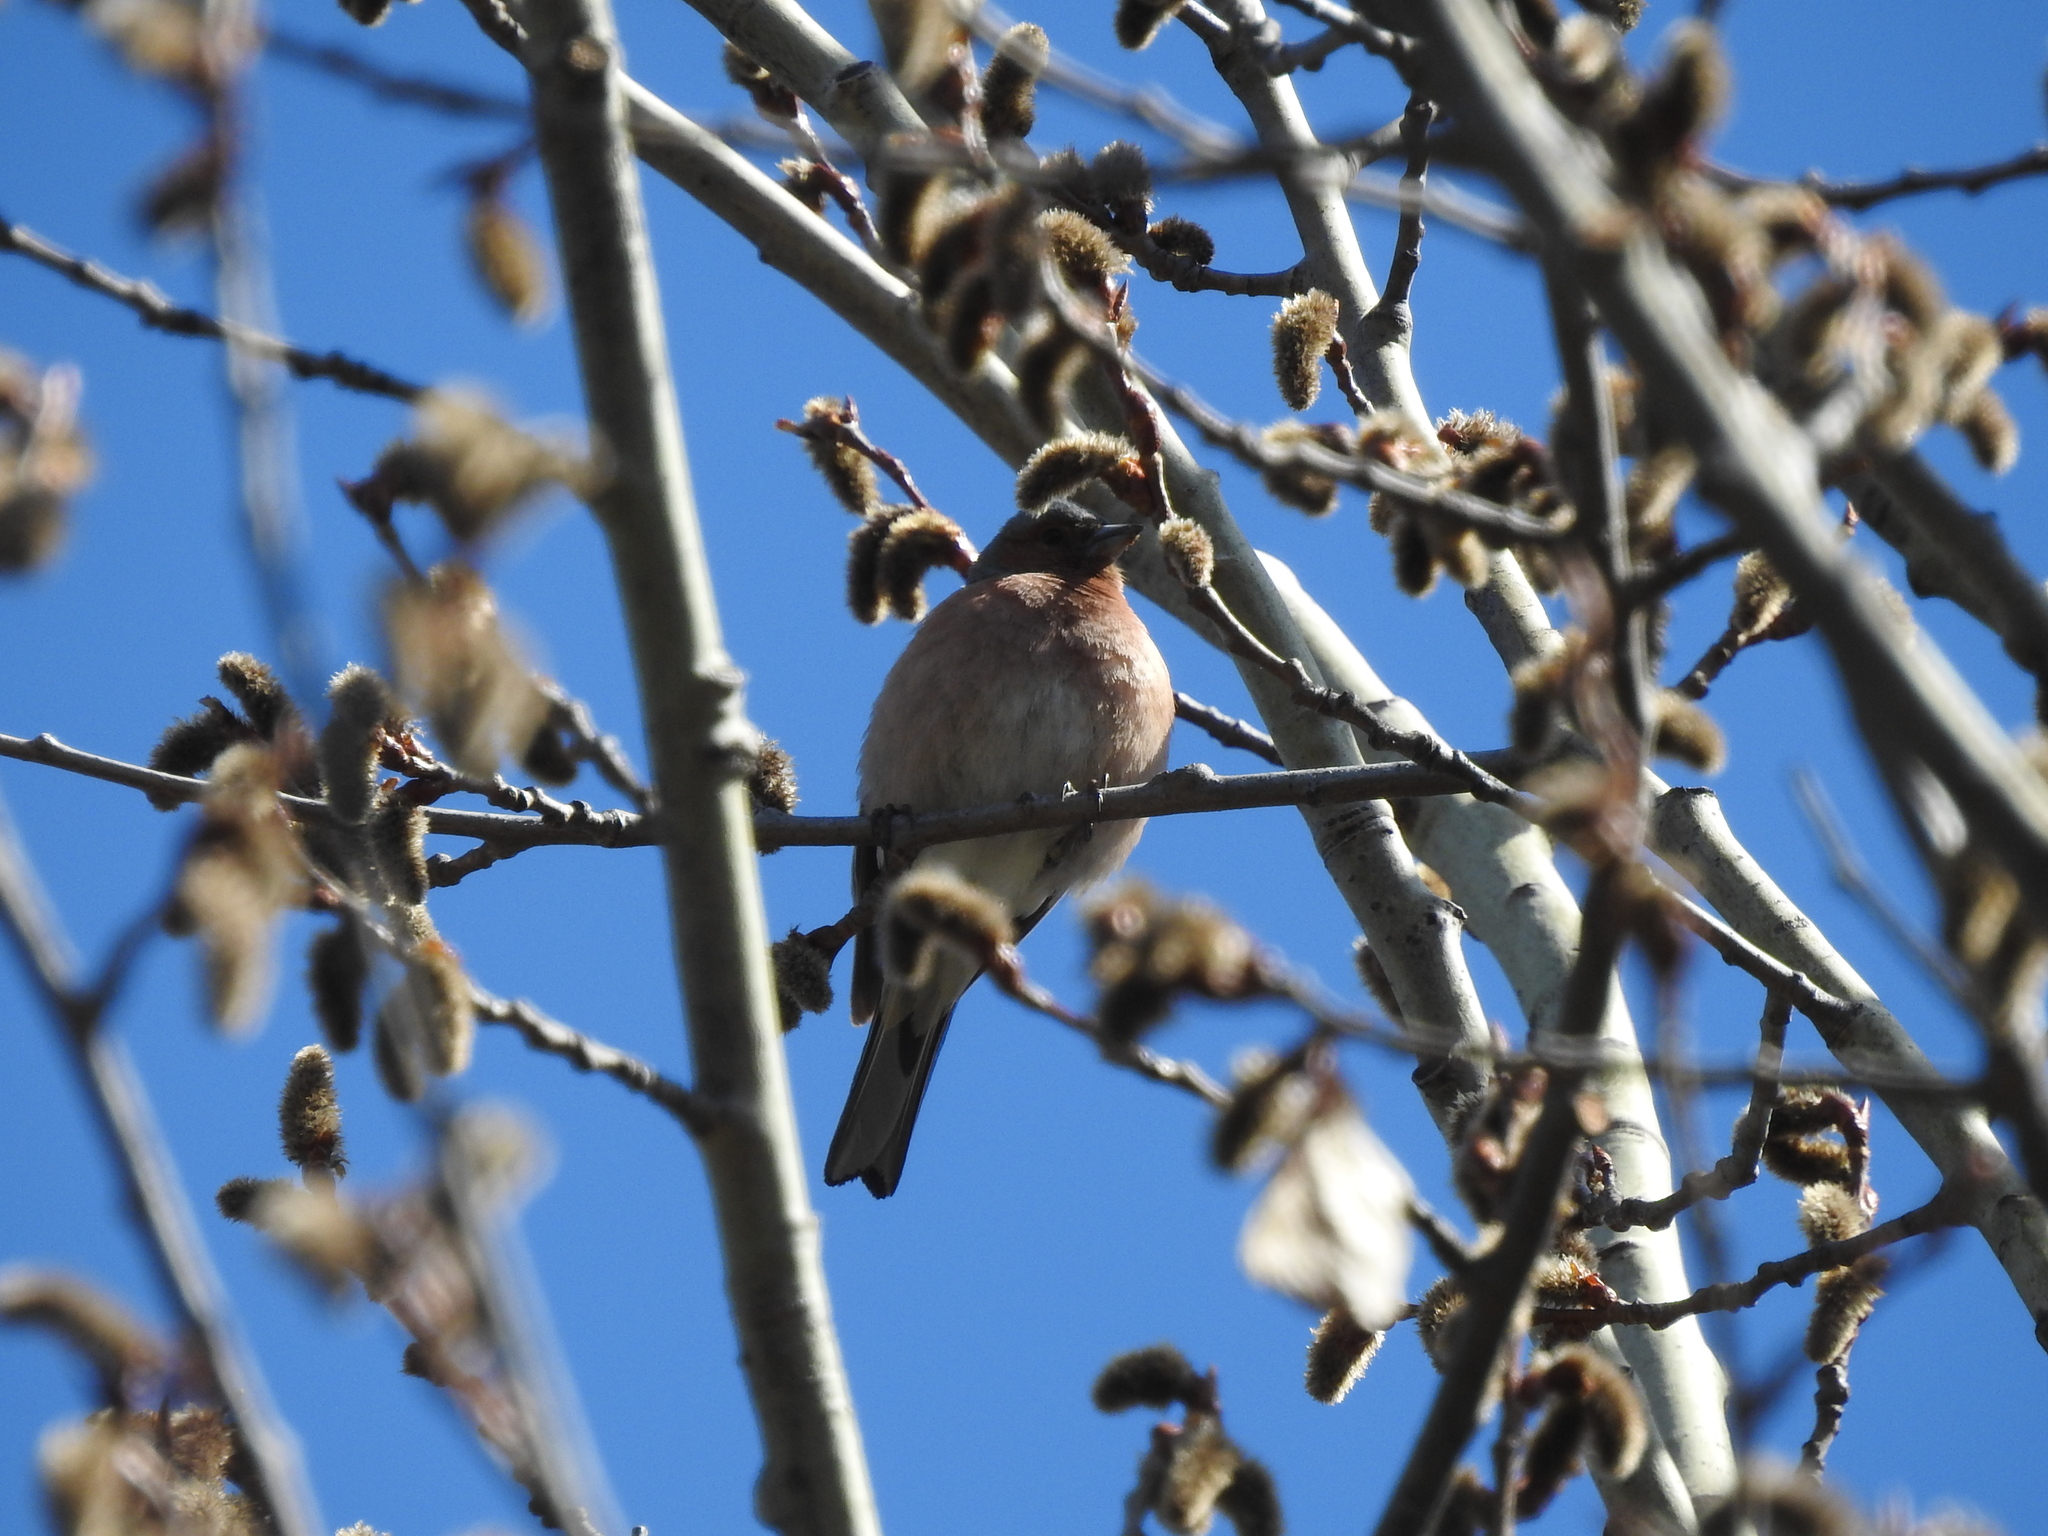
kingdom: Animalia
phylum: Chordata
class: Aves
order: Passeriformes
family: Fringillidae
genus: Fringilla
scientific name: Fringilla coelebs
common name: Common chaffinch
